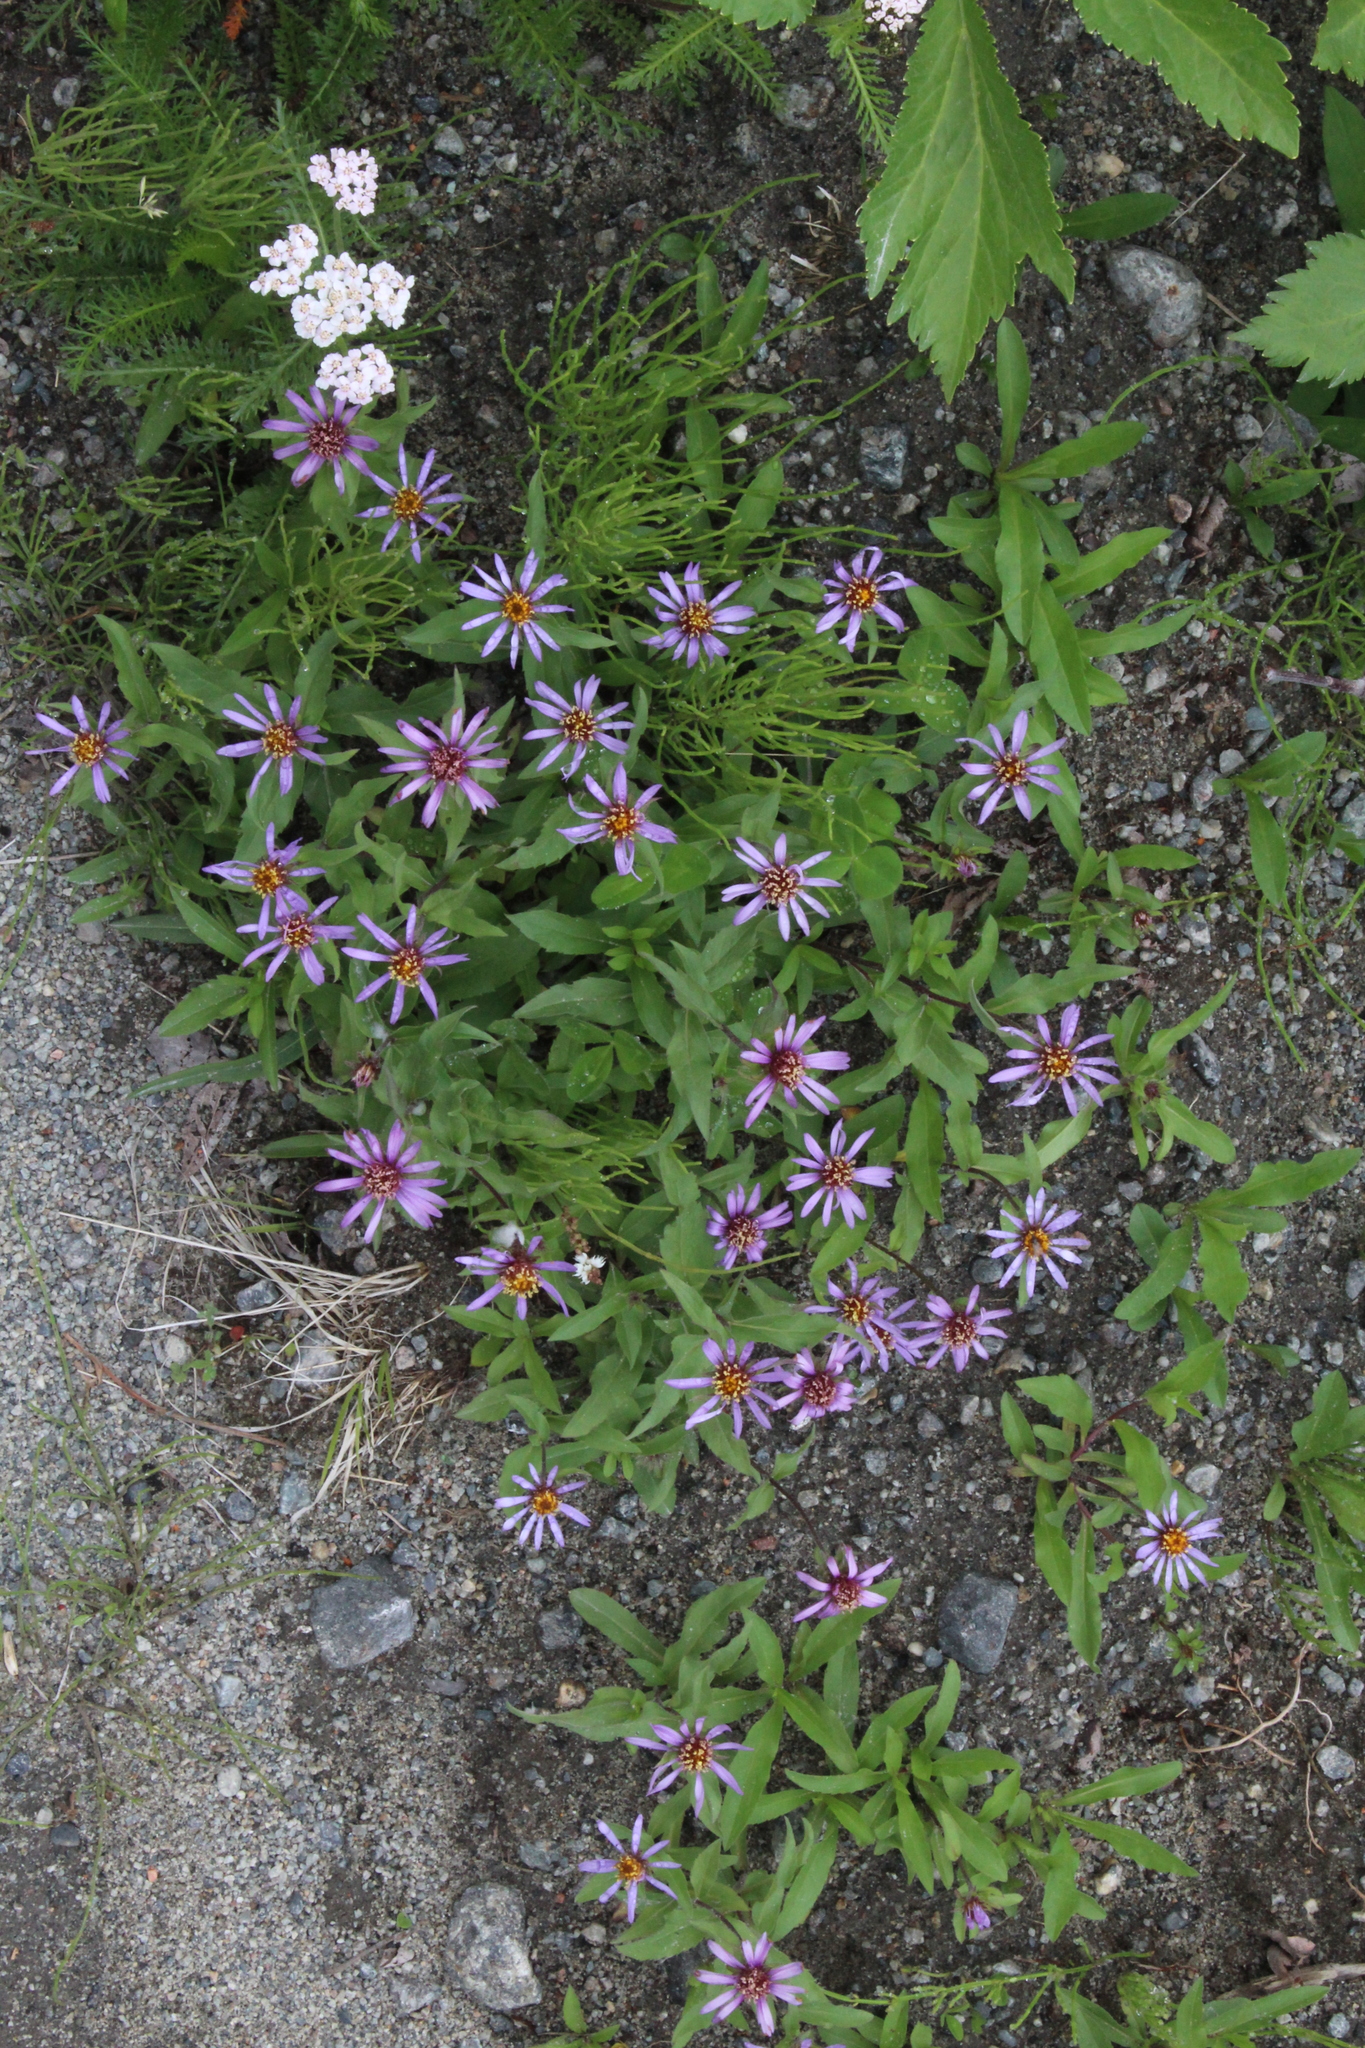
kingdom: Plantae
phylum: Tracheophyta
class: Magnoliopsida
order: Asterales
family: Asteraceae
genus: Eurybia
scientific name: Eurybia sibirica
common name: Arctic aster
